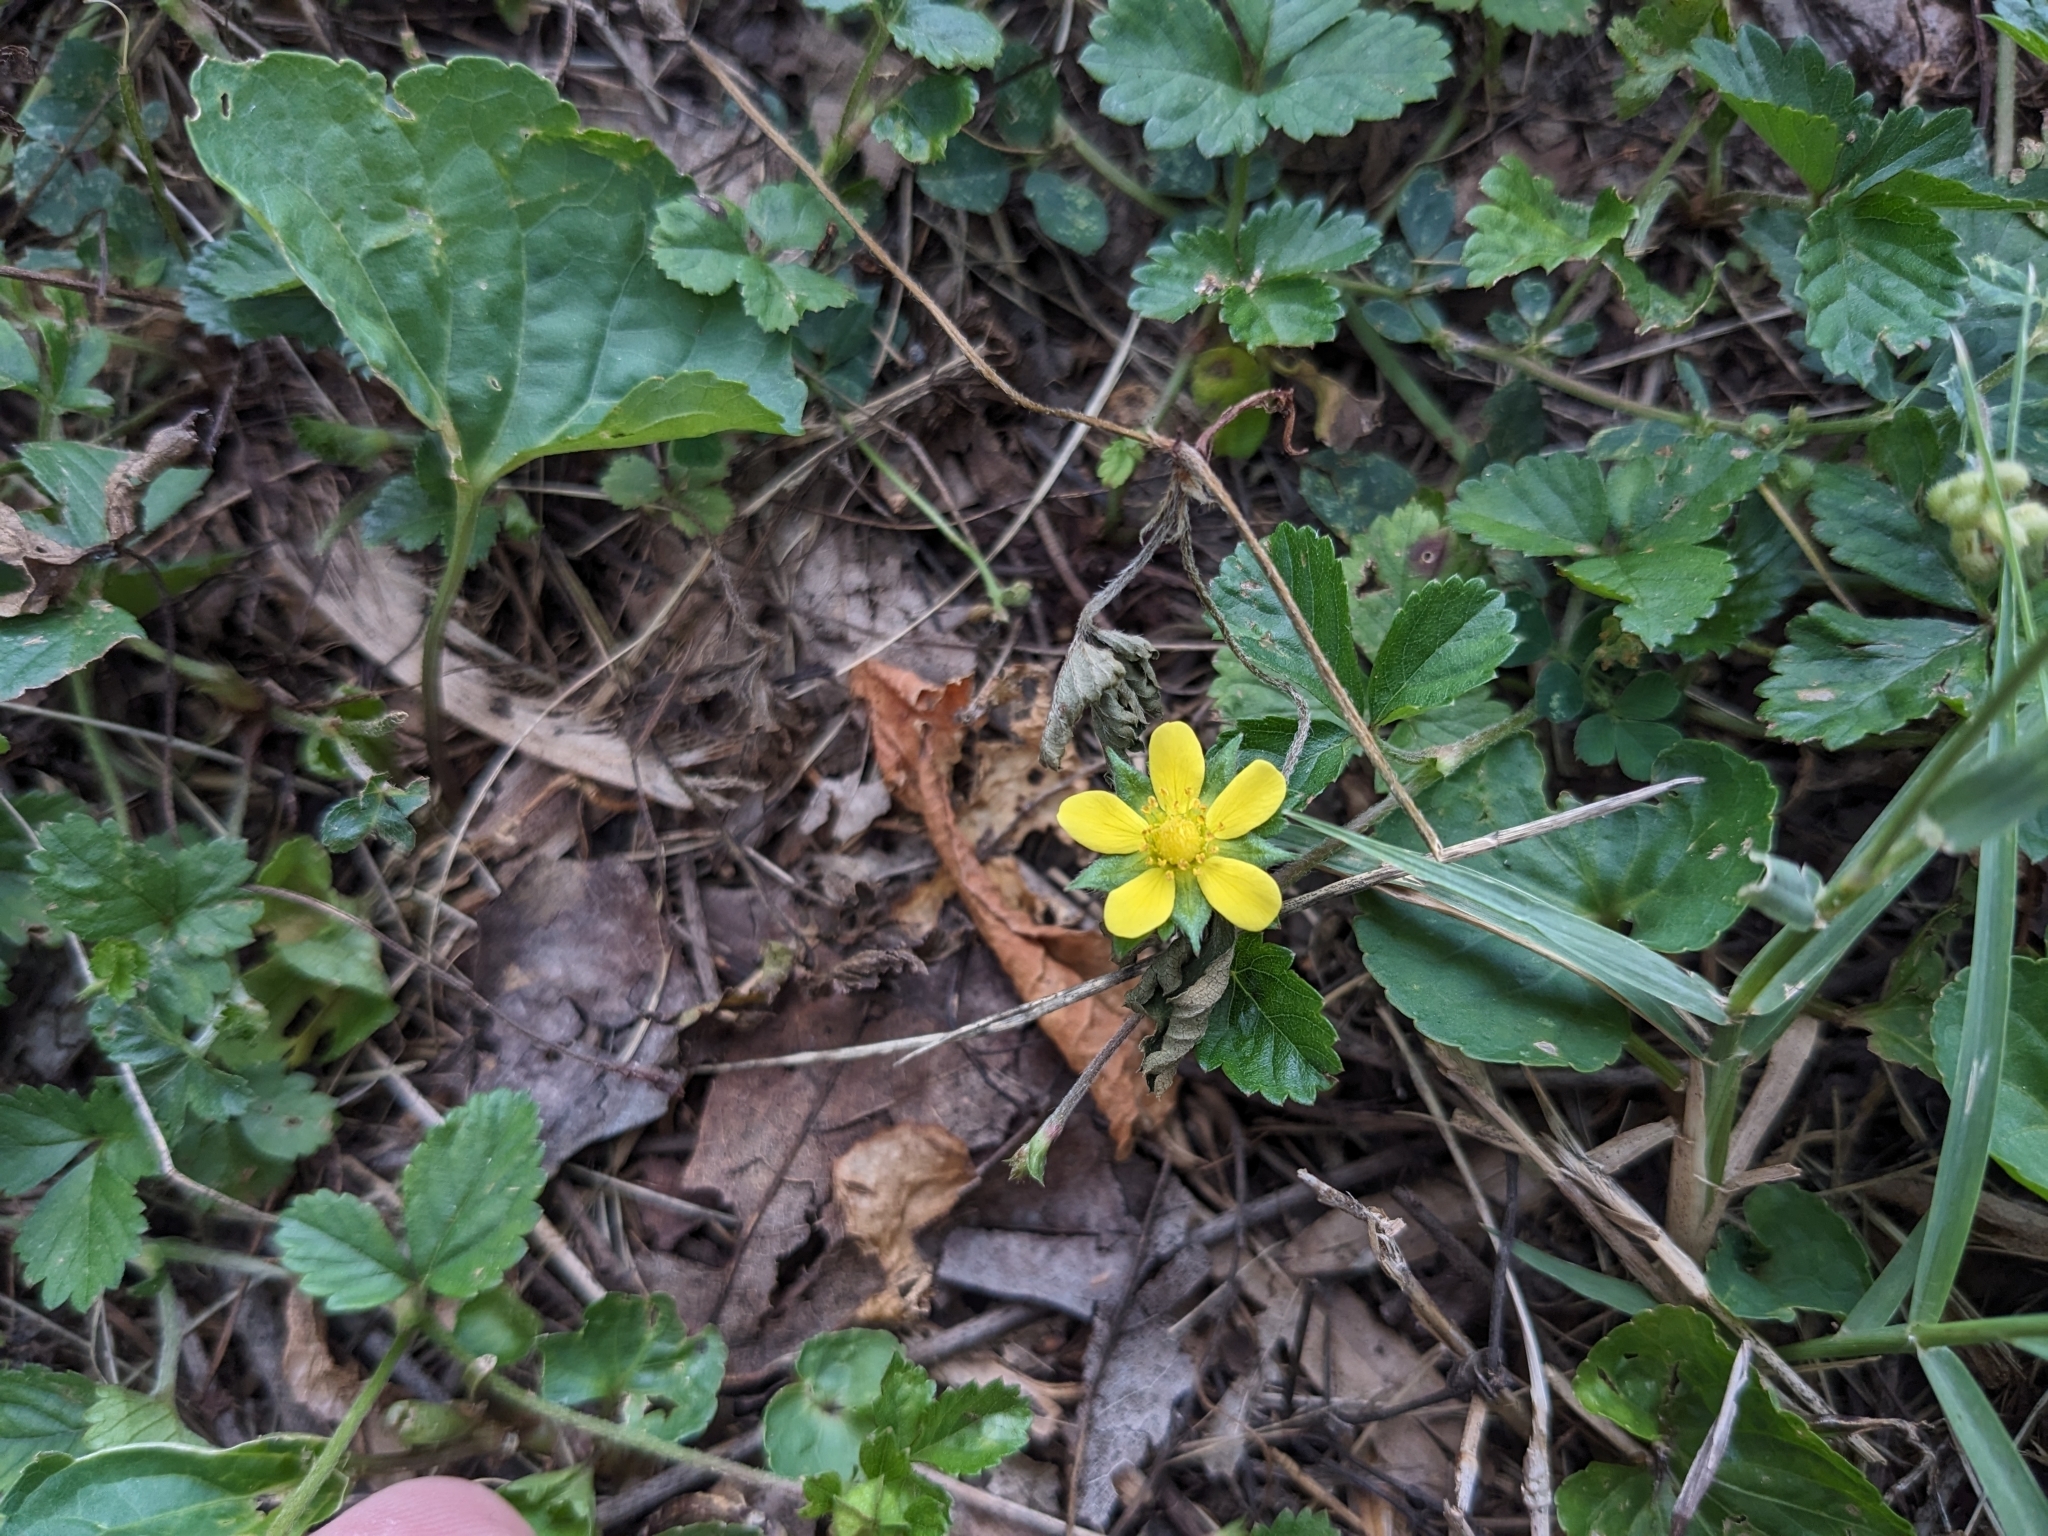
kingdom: Plantae
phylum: Tracheophyta
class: Magnoliopsida
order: Rosales
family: Rosaceae
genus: Potentilla
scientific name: Potentilla indica
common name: Yellow-flowered strawberry
